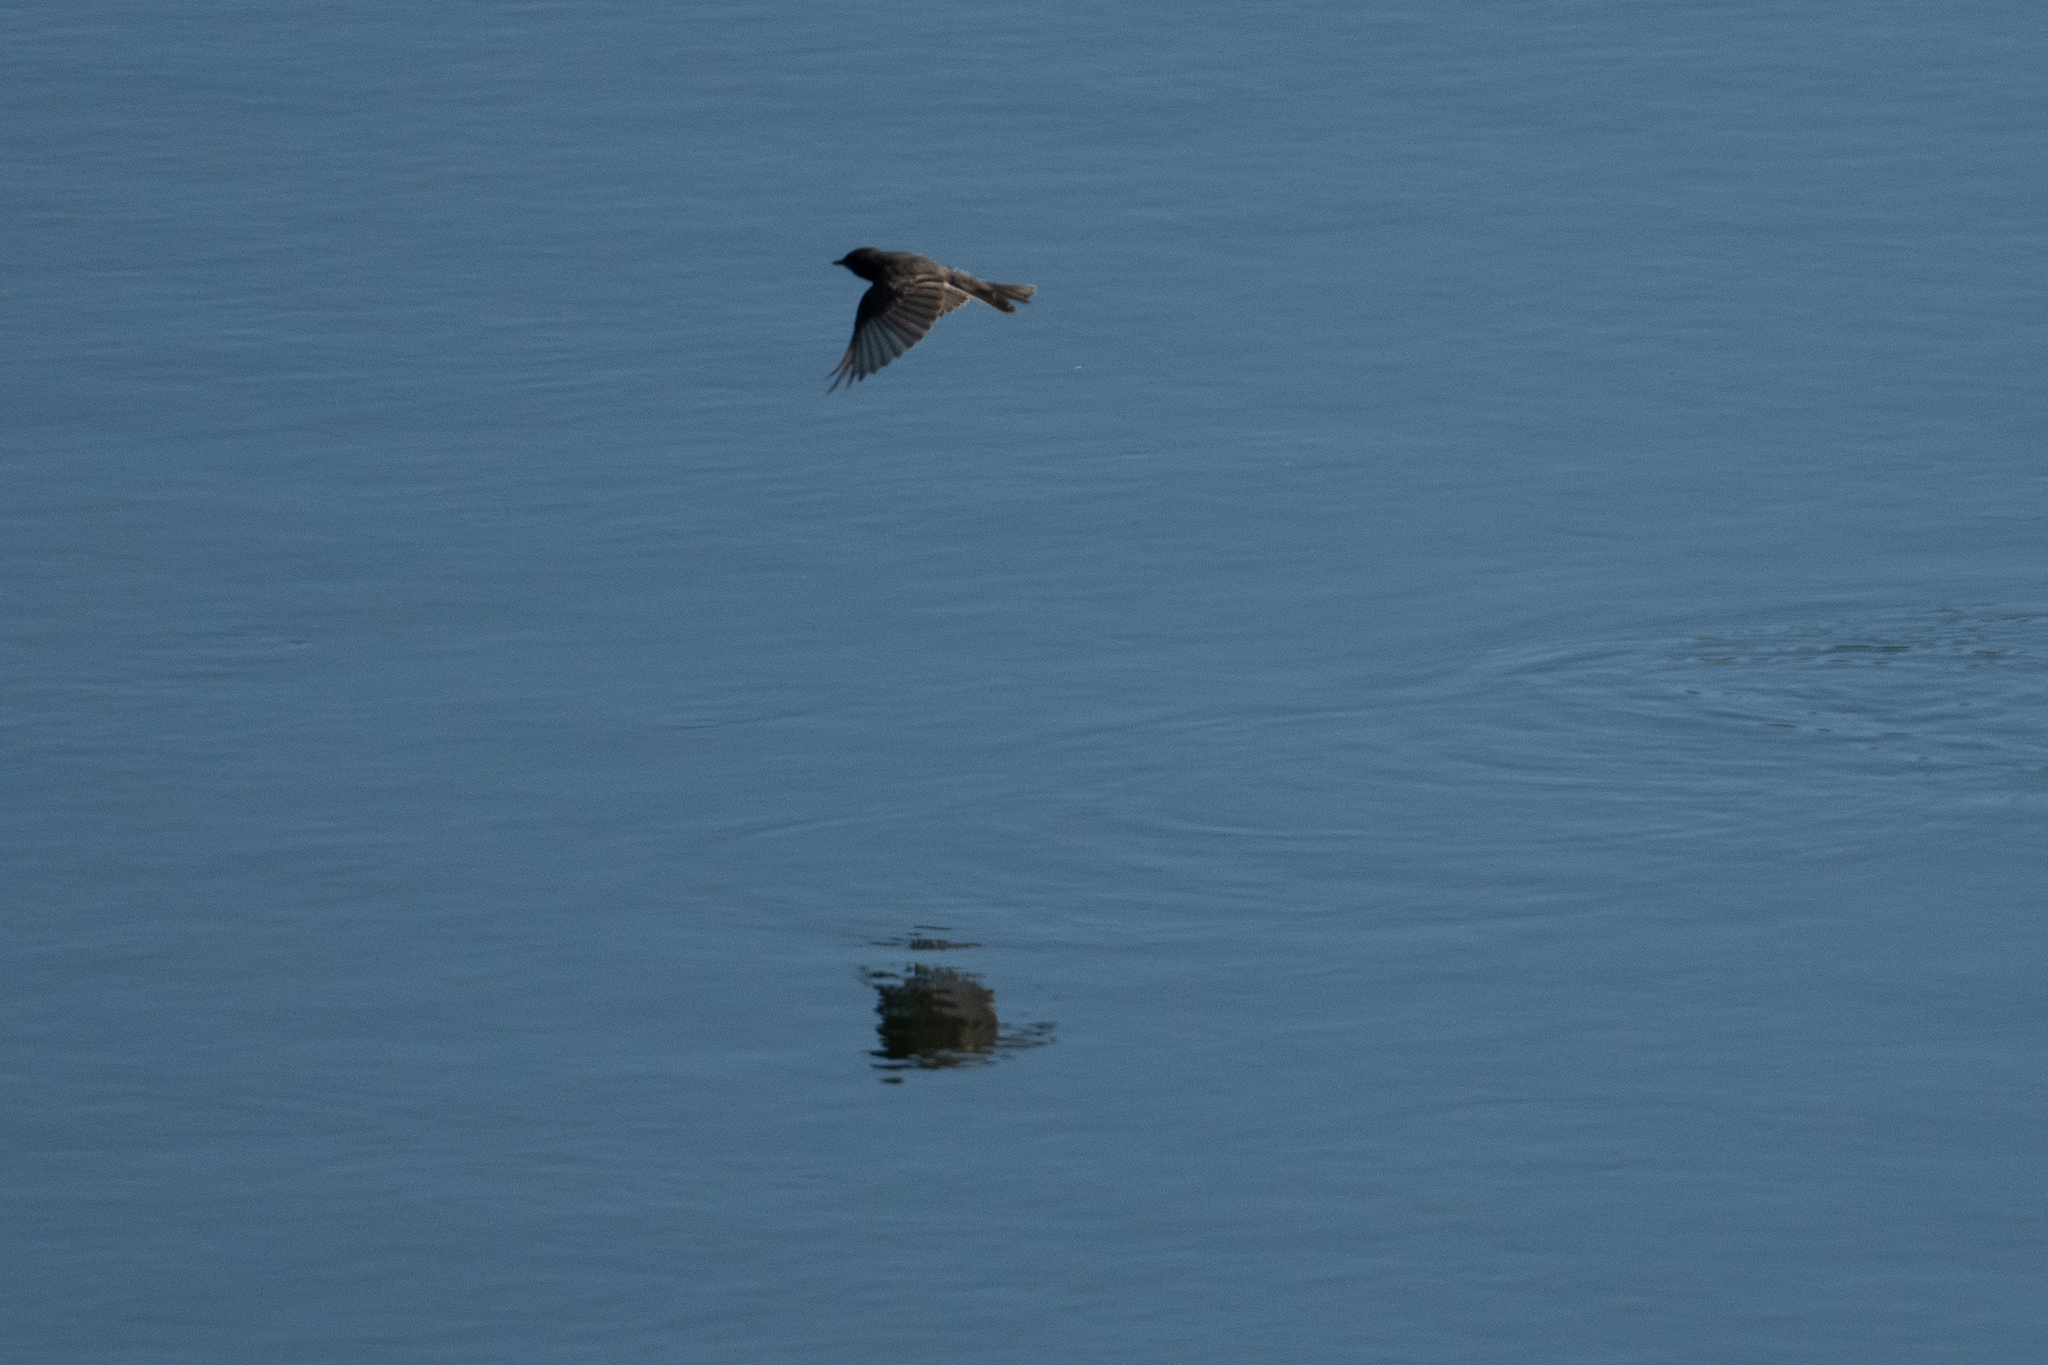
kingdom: Animalia
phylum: Chordata
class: Aves
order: Passeriformes
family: Tyrannidae
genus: Sayornis
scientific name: Sayornis nigricans
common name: Black phoebe
